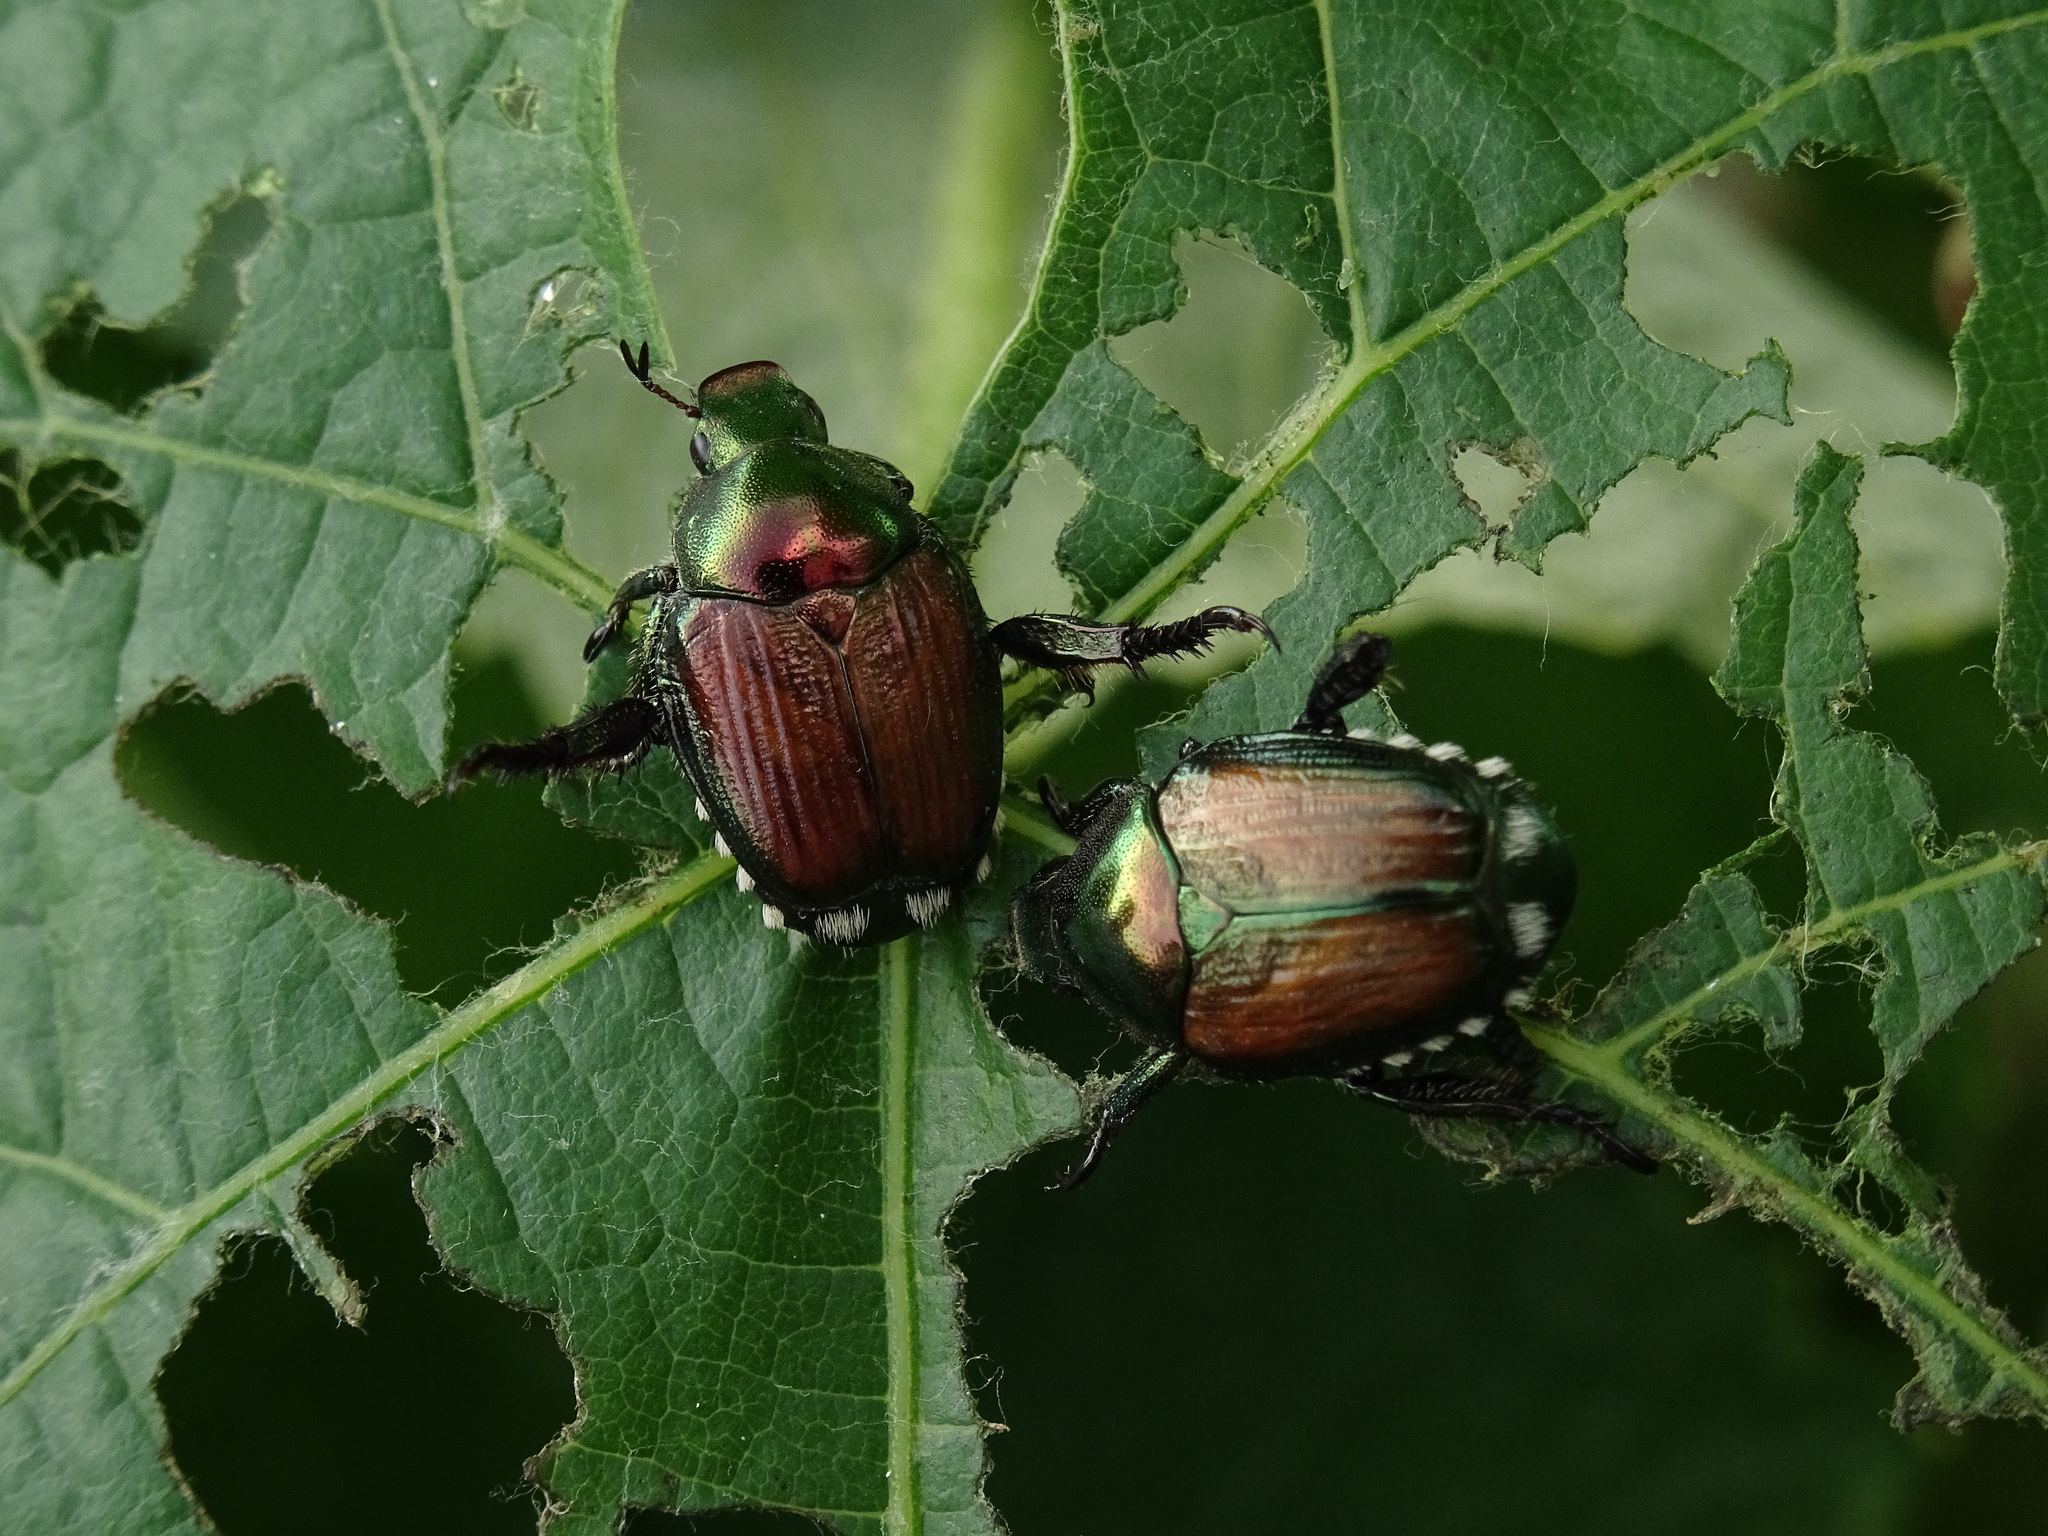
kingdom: Animalia
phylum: Arthropoda
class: Insecta
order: Coleoptera
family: Scarabaeidae
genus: Popillia
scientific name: Popillia japonica
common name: Japanese beetle
